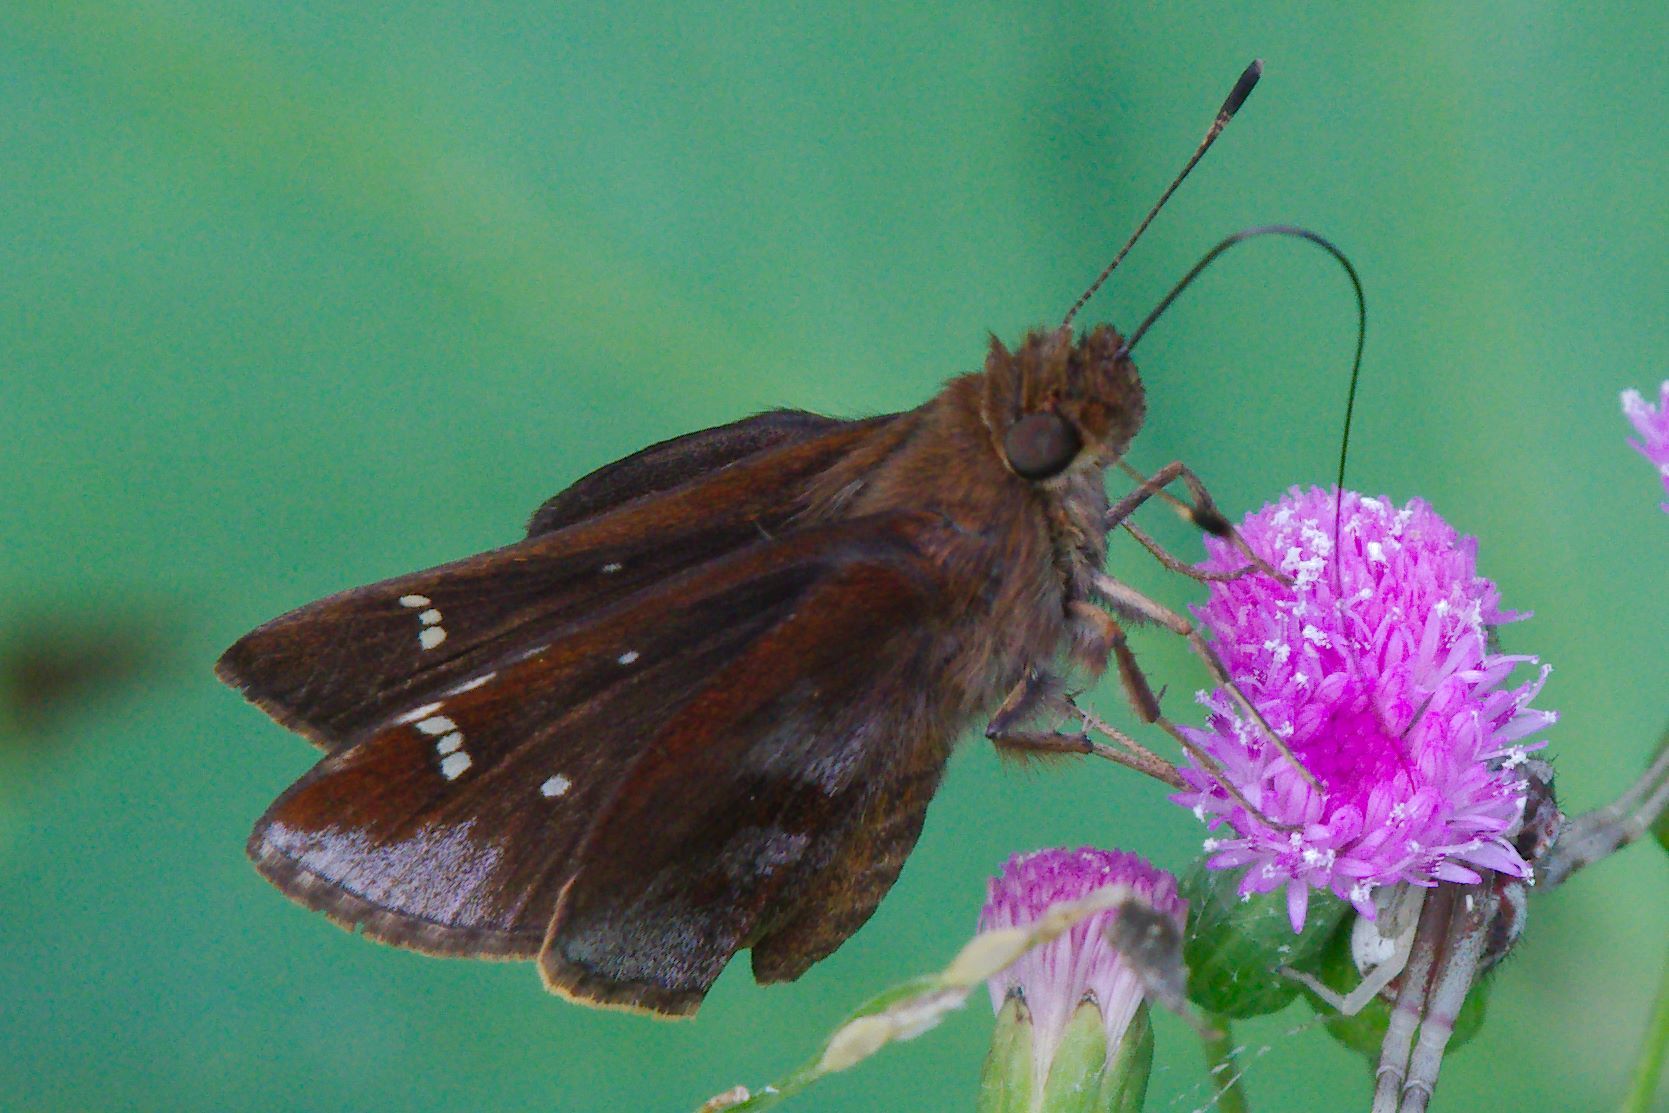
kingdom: Animalia
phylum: Arthropoda
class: Insecta
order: Lepidoptera
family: Hesperiidae
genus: Lerema
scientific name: Lerema accius
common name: Clouded skipper
